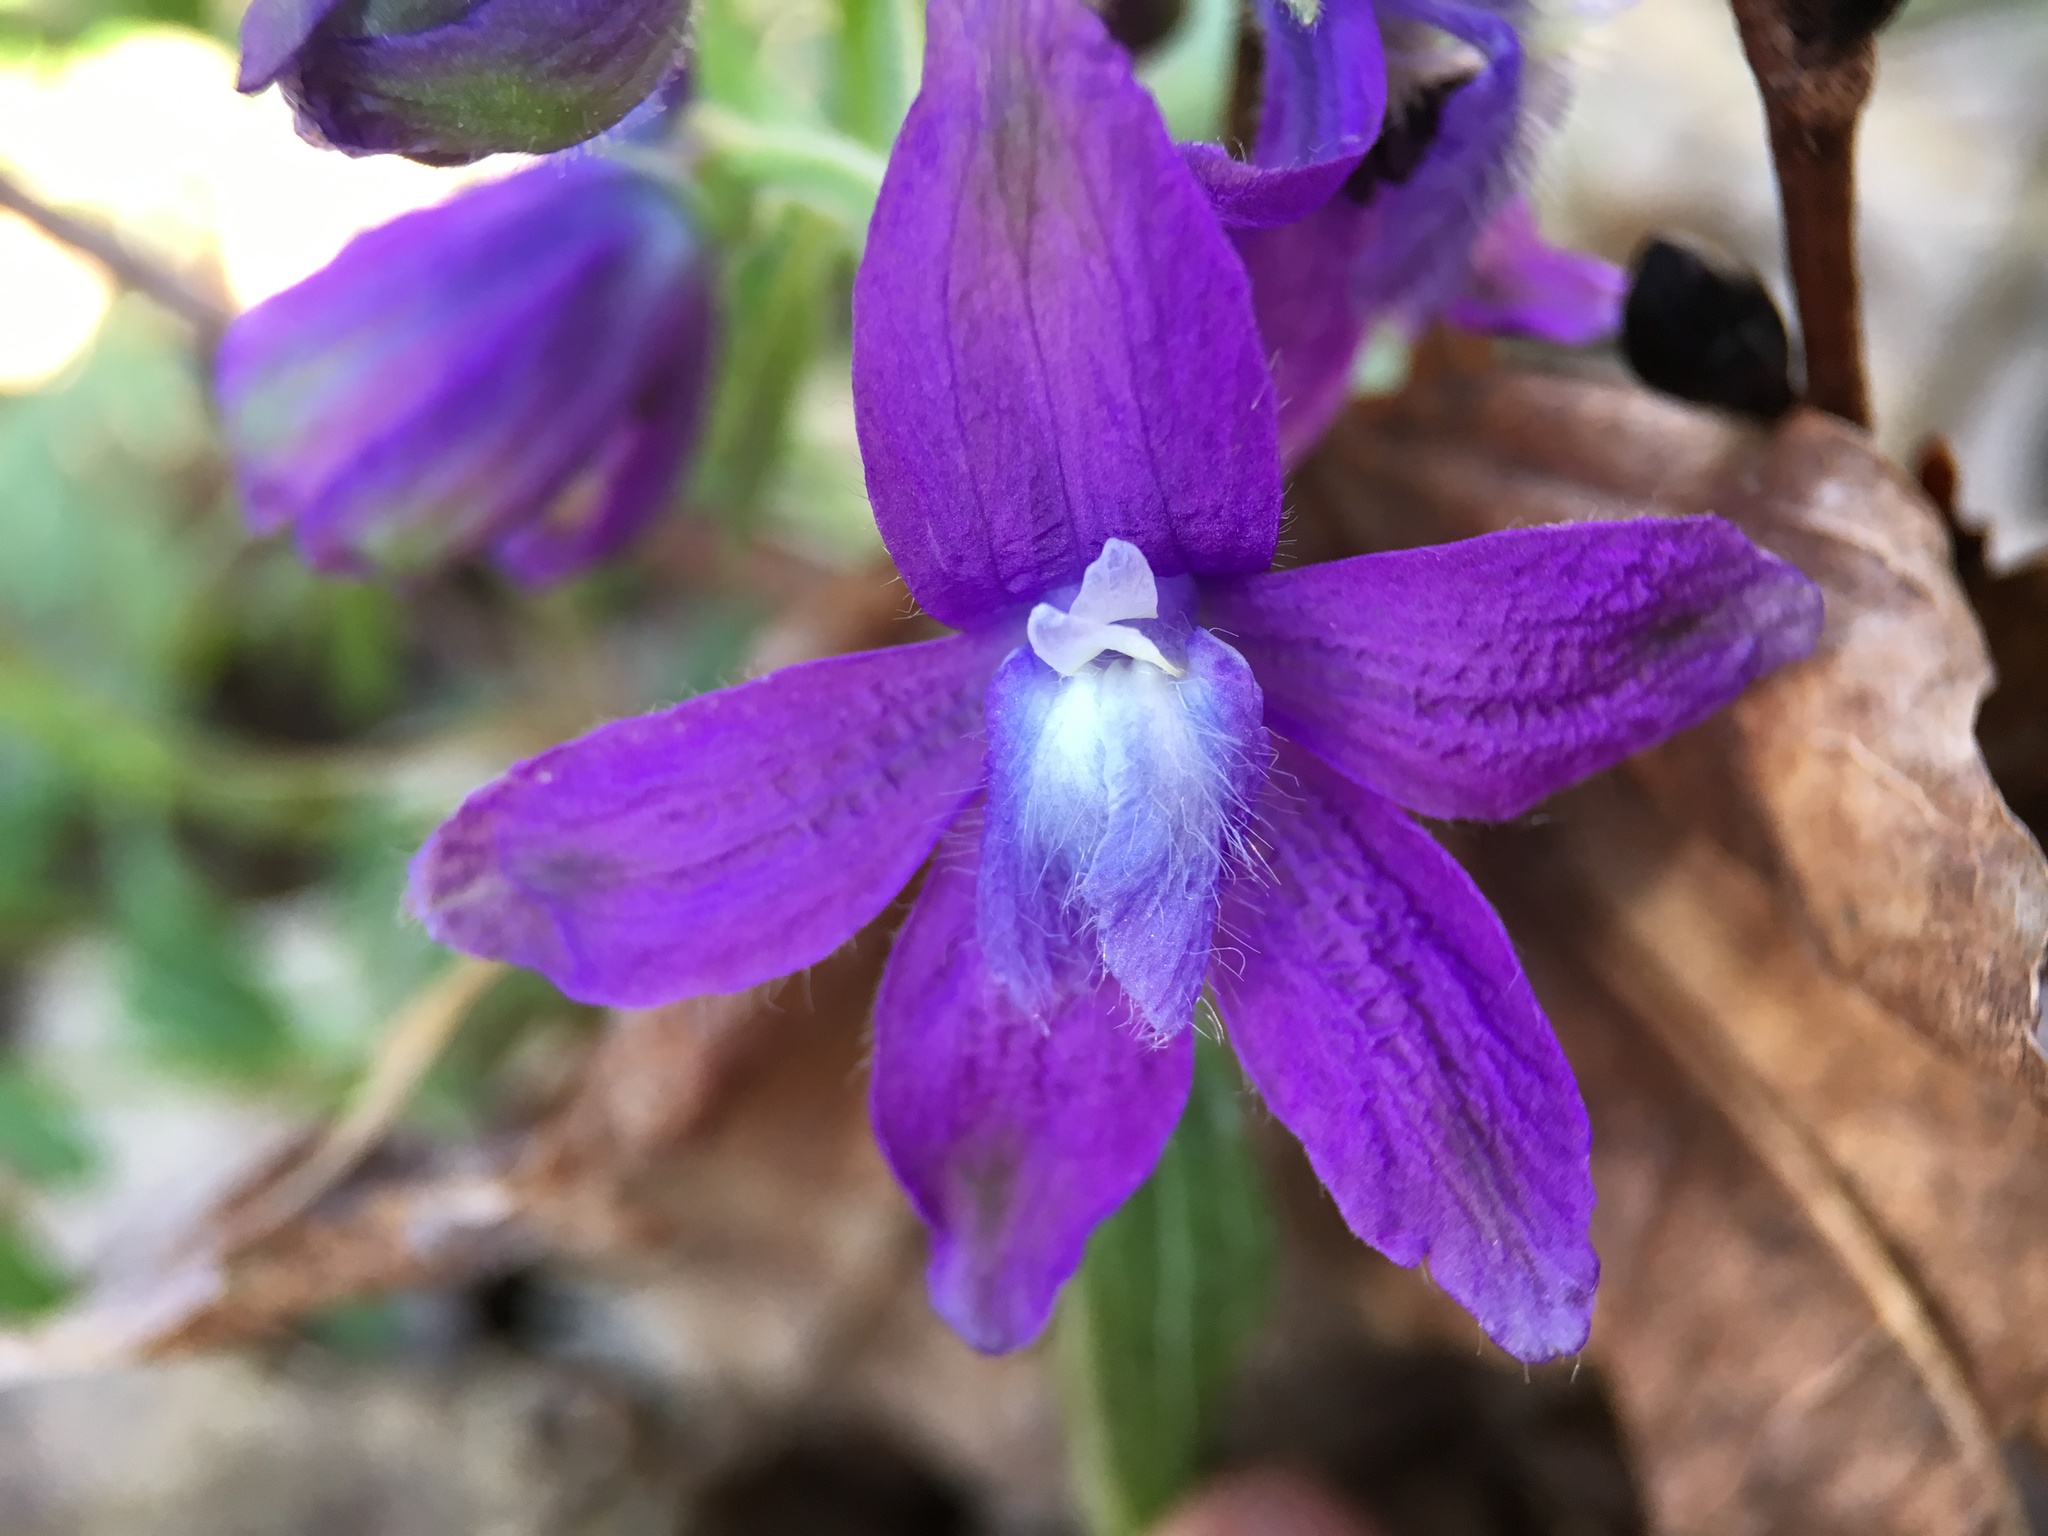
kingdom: Plantae
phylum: Tracheophyta
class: Magnoliopsida
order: Ranunculales
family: Ranunculaceae
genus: Delphinium
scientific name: Delphinium tricorne
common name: Dwarf larkspur
